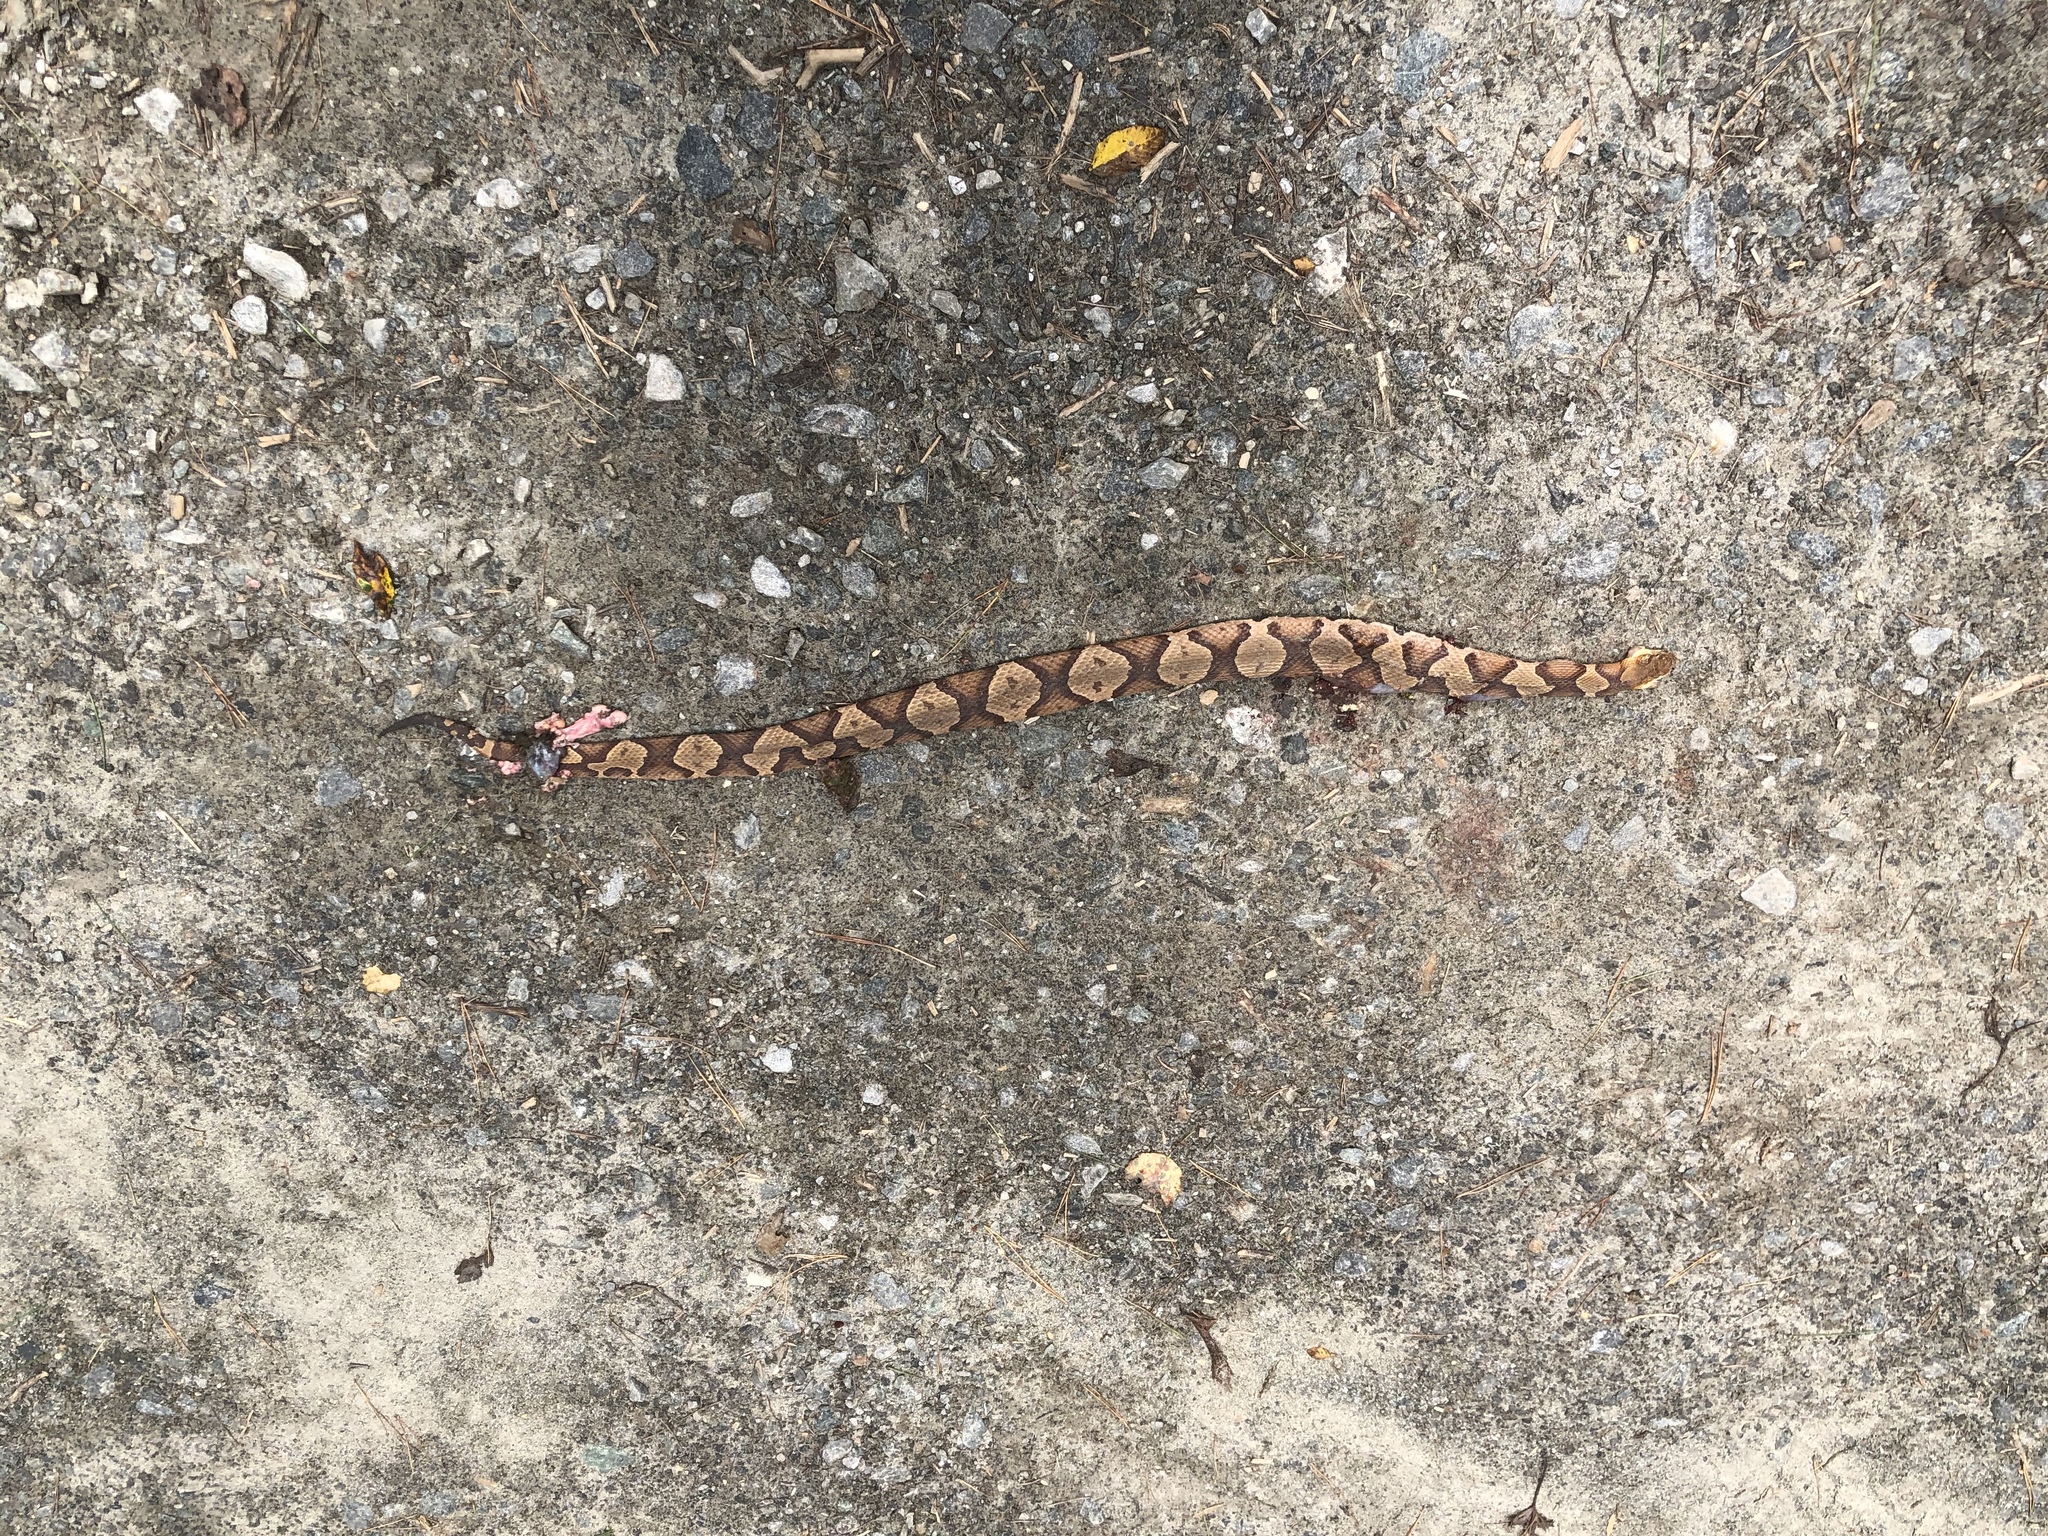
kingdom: Animalia
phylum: Chordata
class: Squamata
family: Viperidae
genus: Agkistrodon
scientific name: Agkistrodon contortrix
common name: Northern copperhead
